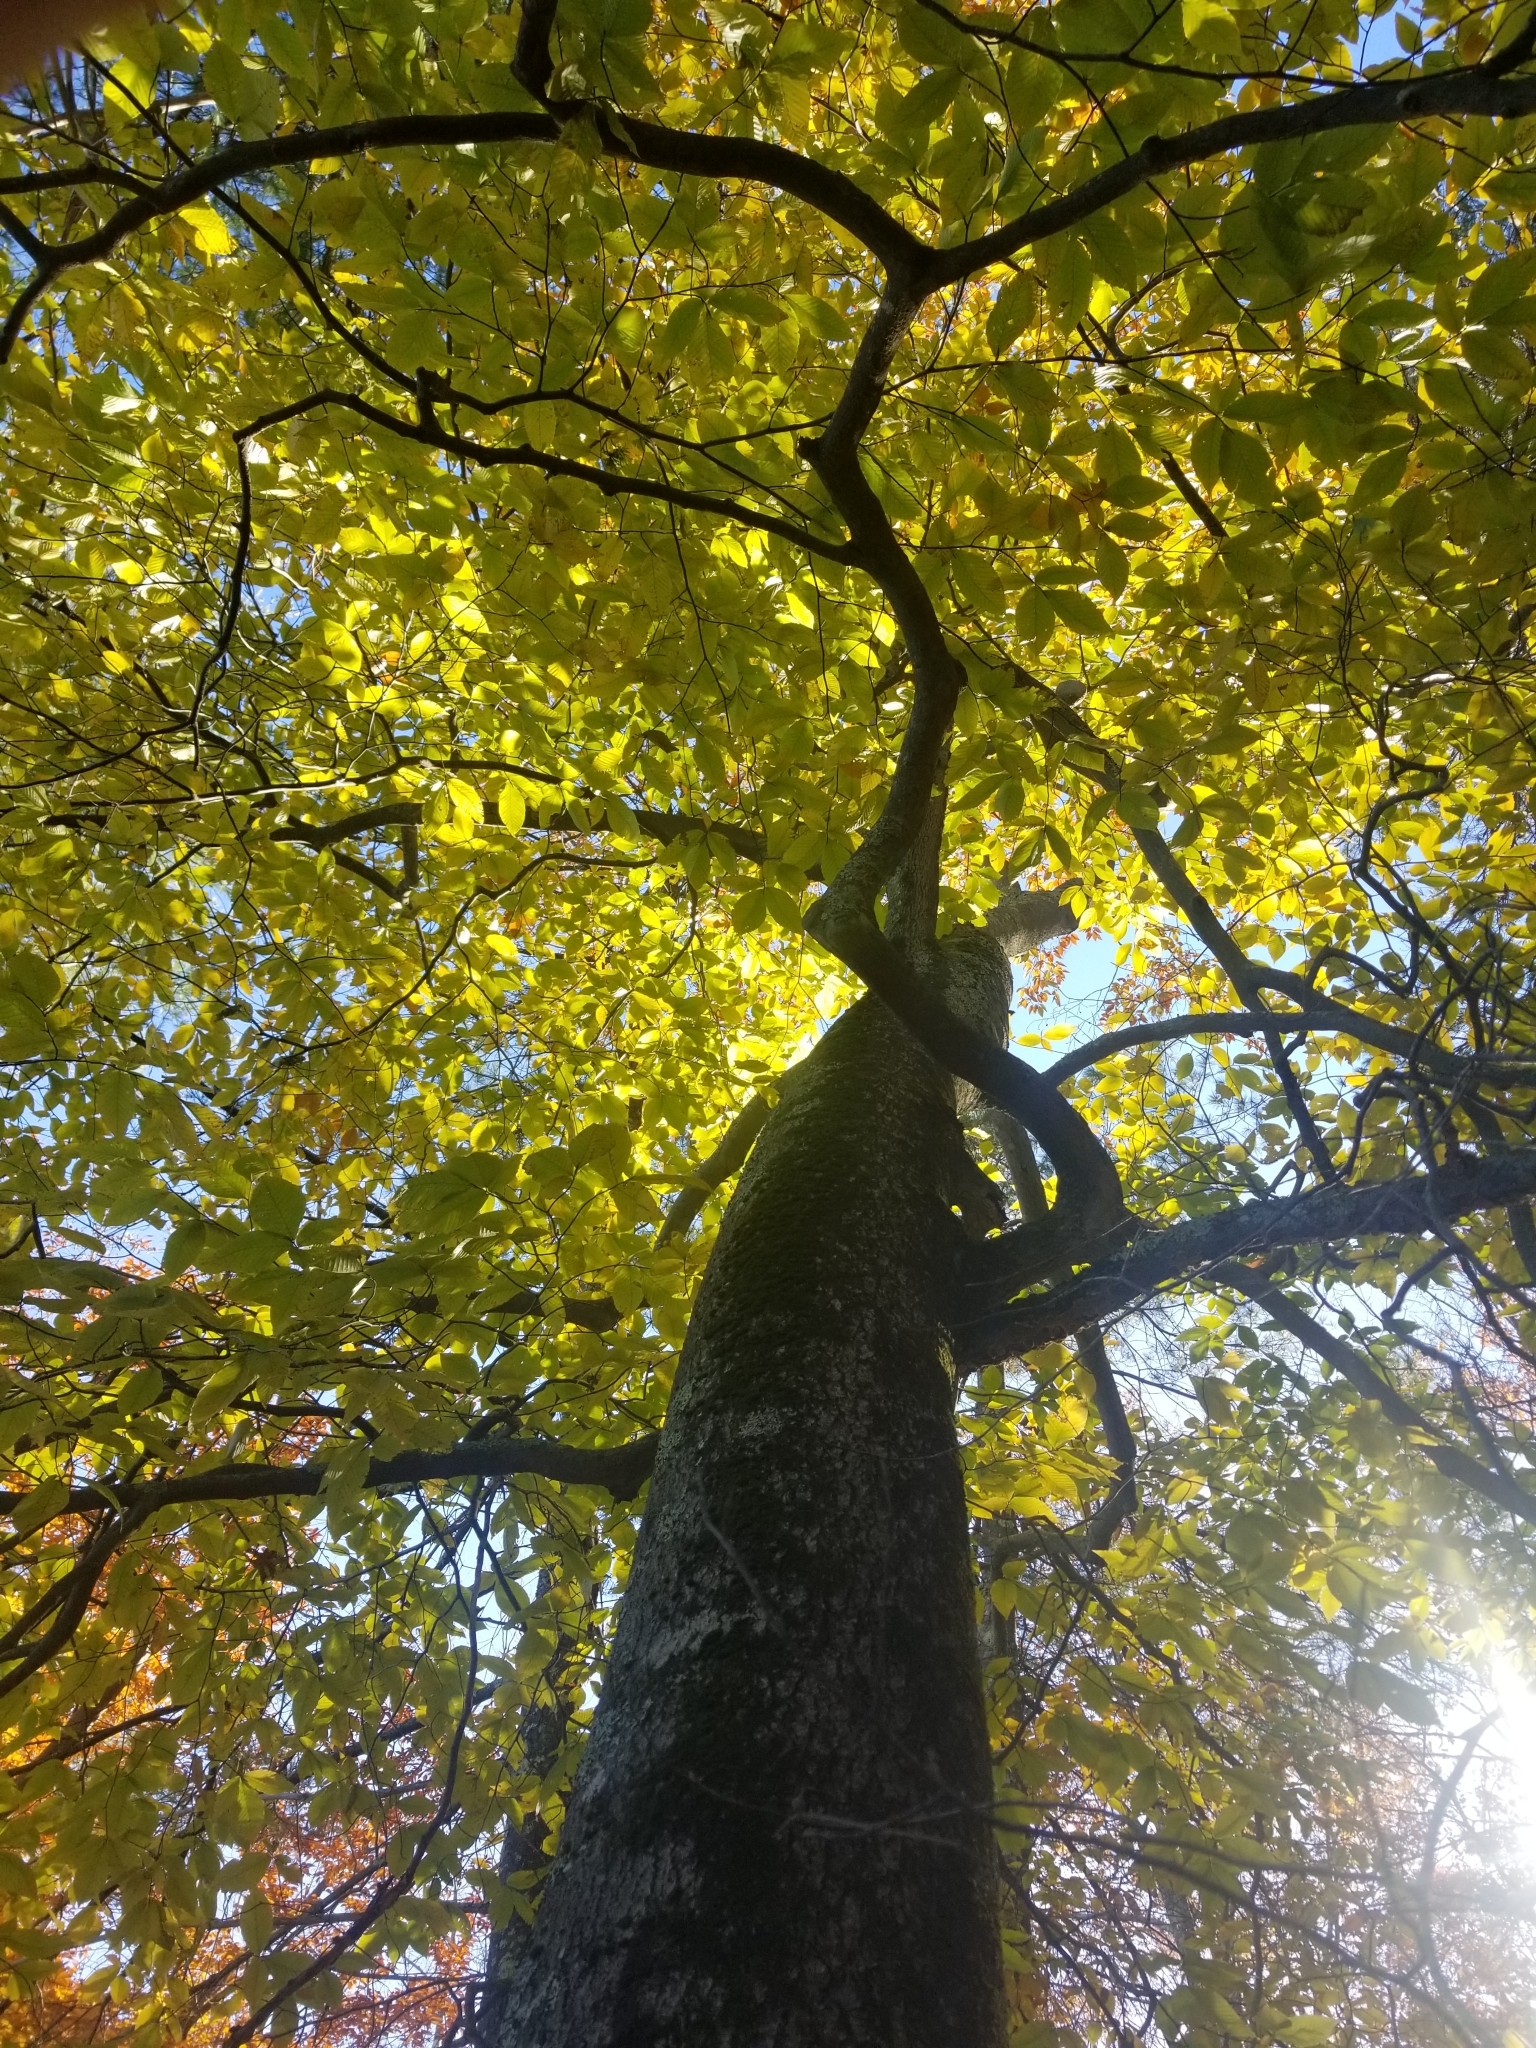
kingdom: Plantae
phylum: Tracheophyta
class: Magnoliopsida
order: Fagales
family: Fagaceae
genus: Fagus
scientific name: Fagus grandifolia
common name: American beech
